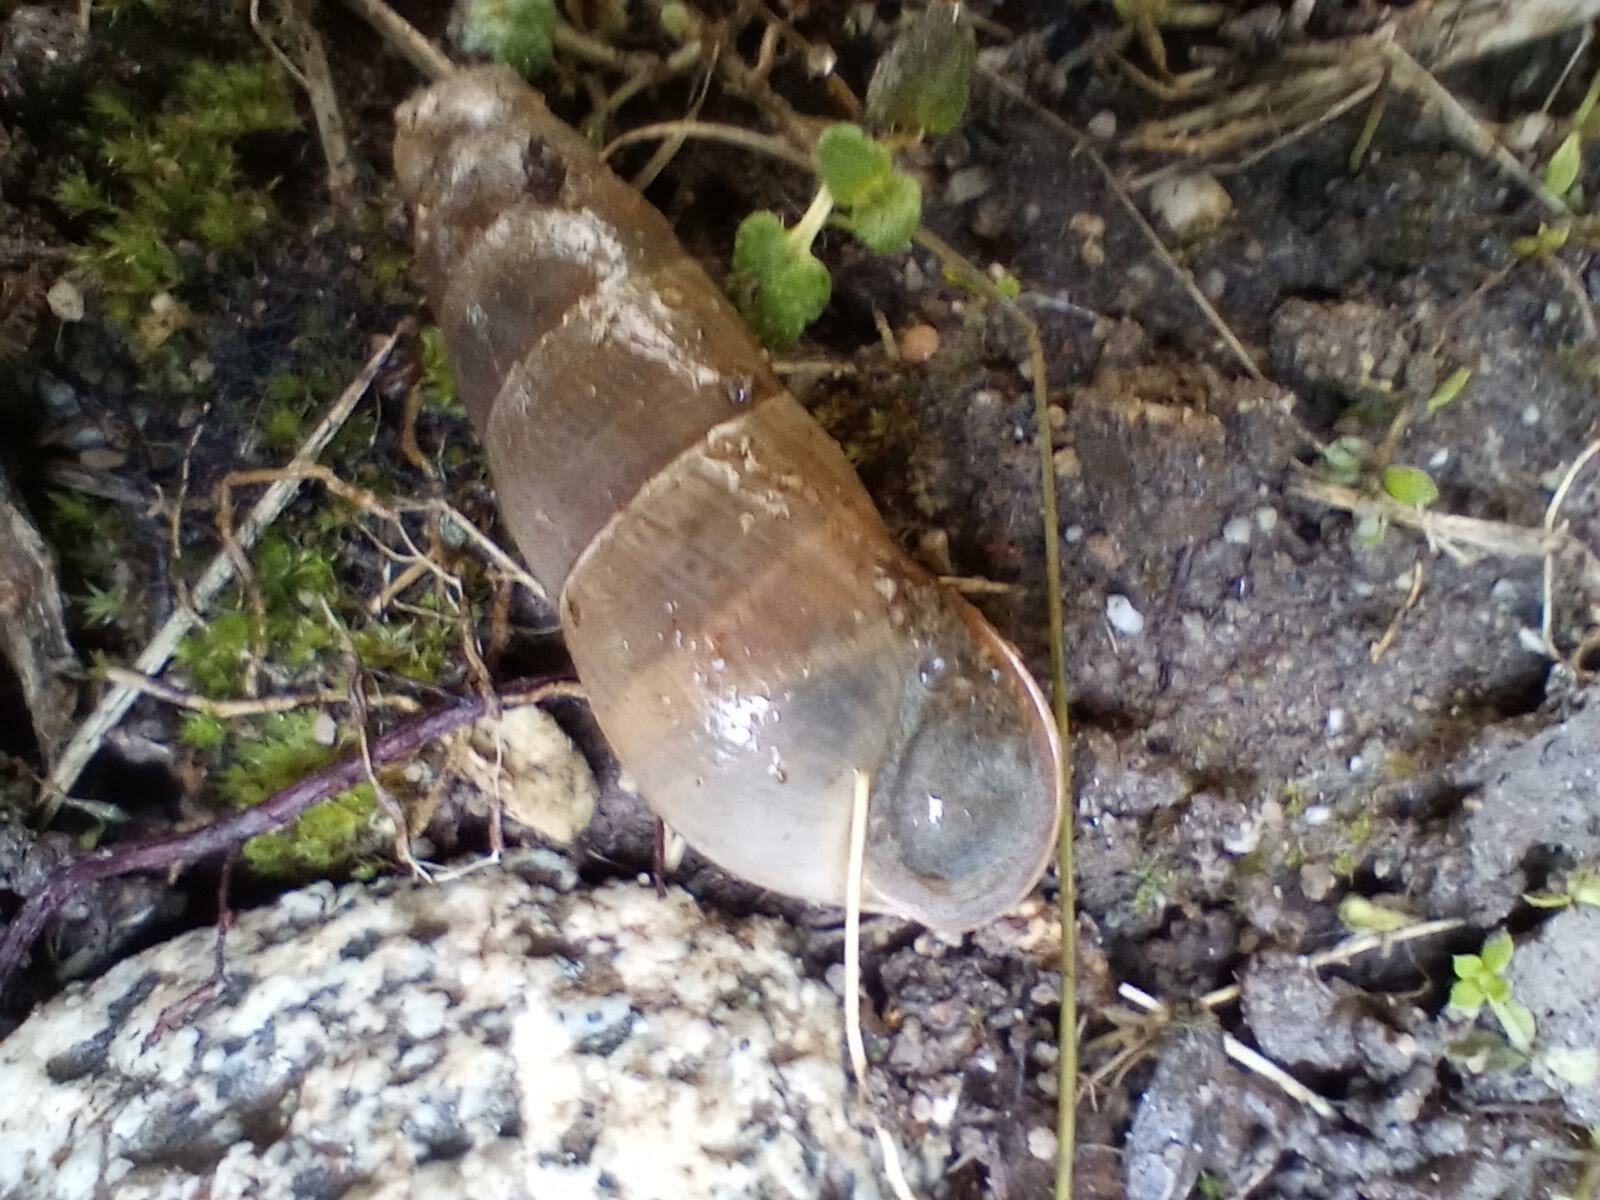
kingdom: Animalia
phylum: Mollusca
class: Gastropoda
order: Stylommatophora
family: Achatinidae
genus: Rumina
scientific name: Rumina decollata
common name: Decollate snail
